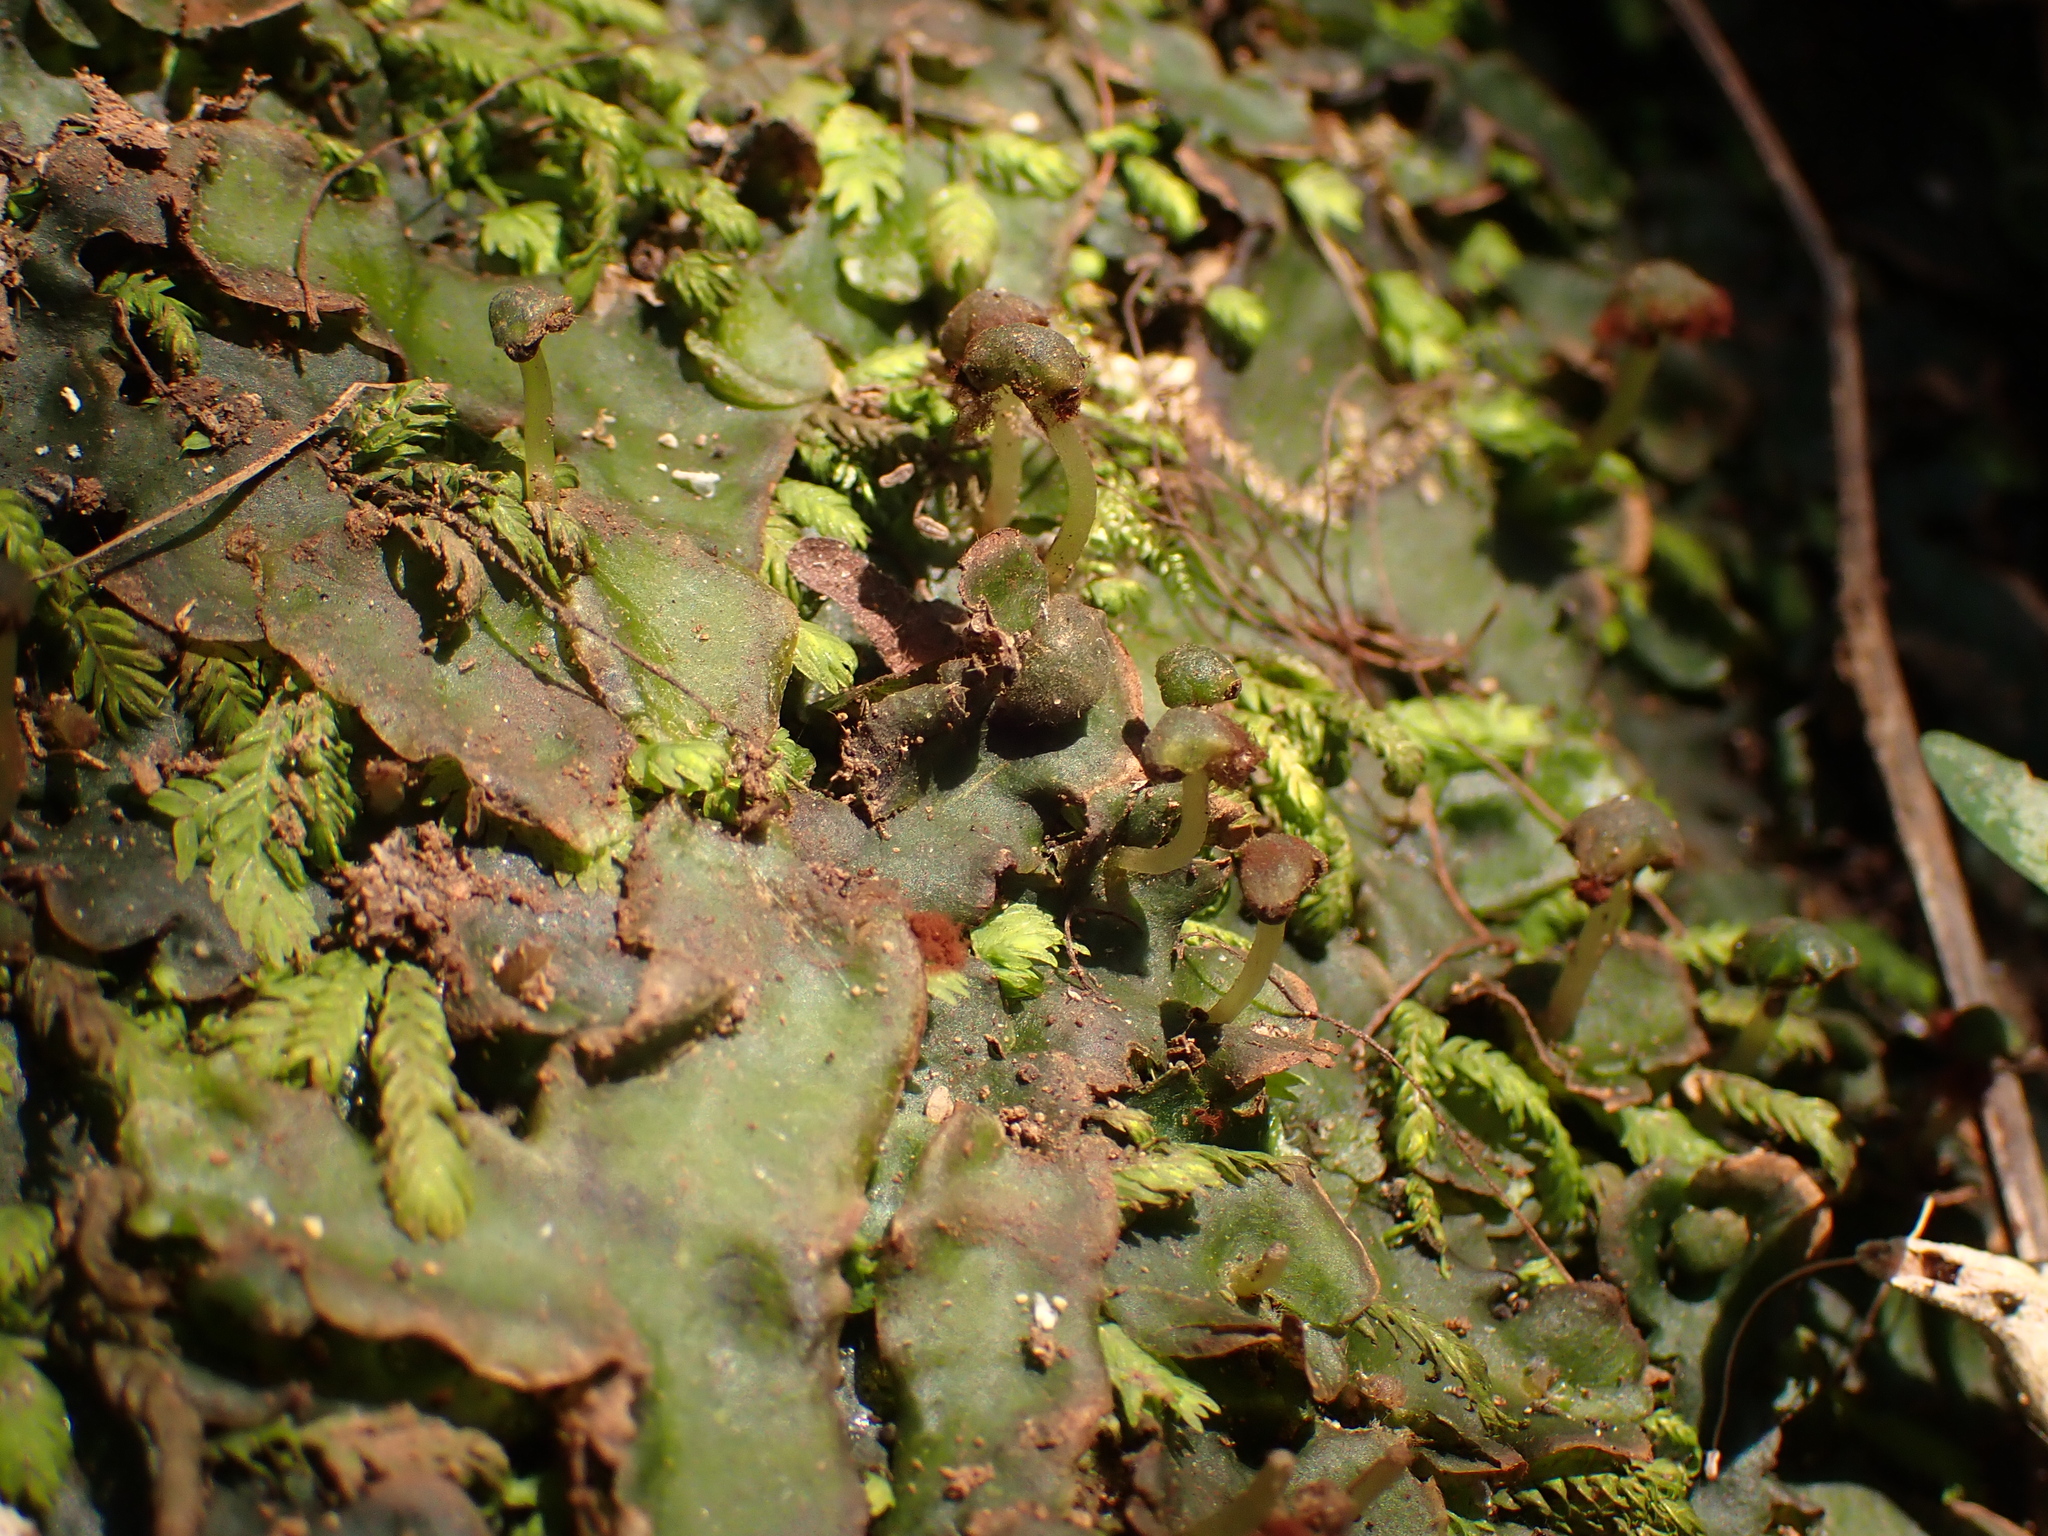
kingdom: Plantae
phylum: Marchantiophyta
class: Marchantiopsida
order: Marchantiales
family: Dumortieraceae
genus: Dumortiera
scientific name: Dumortiera hirsuta
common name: Dumortier's liverwort
